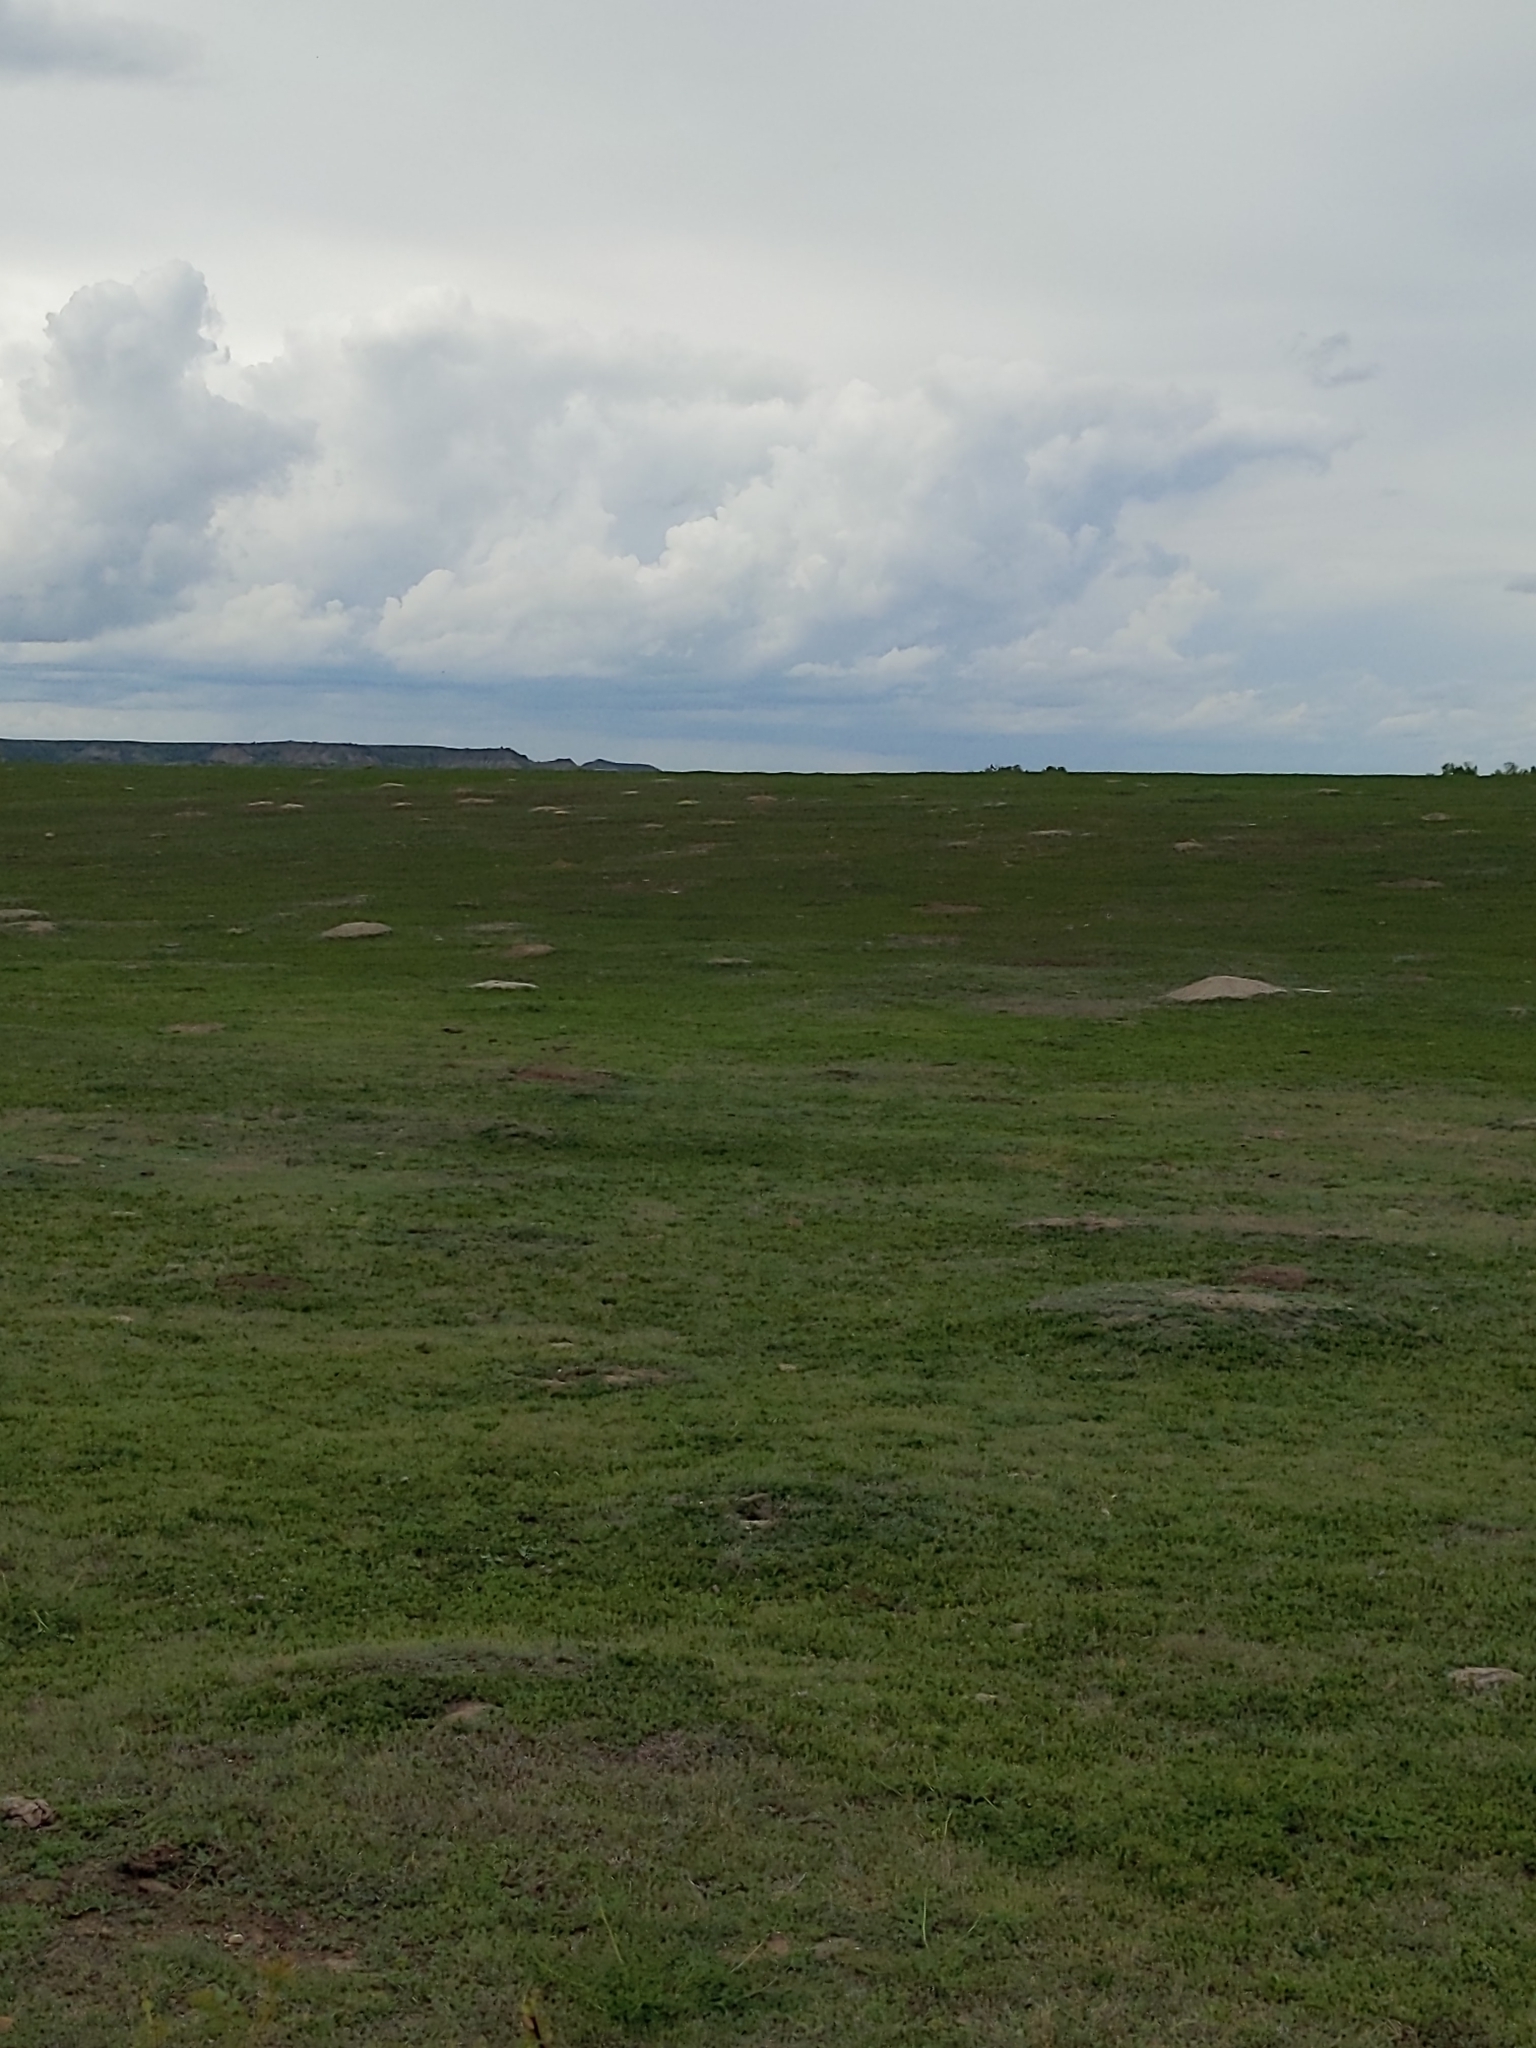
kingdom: Animalia
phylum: Chordata
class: Aves
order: Charadriiformes
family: Charadriidae
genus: Charadrius
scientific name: Charadrius vociferus
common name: Killdeer
